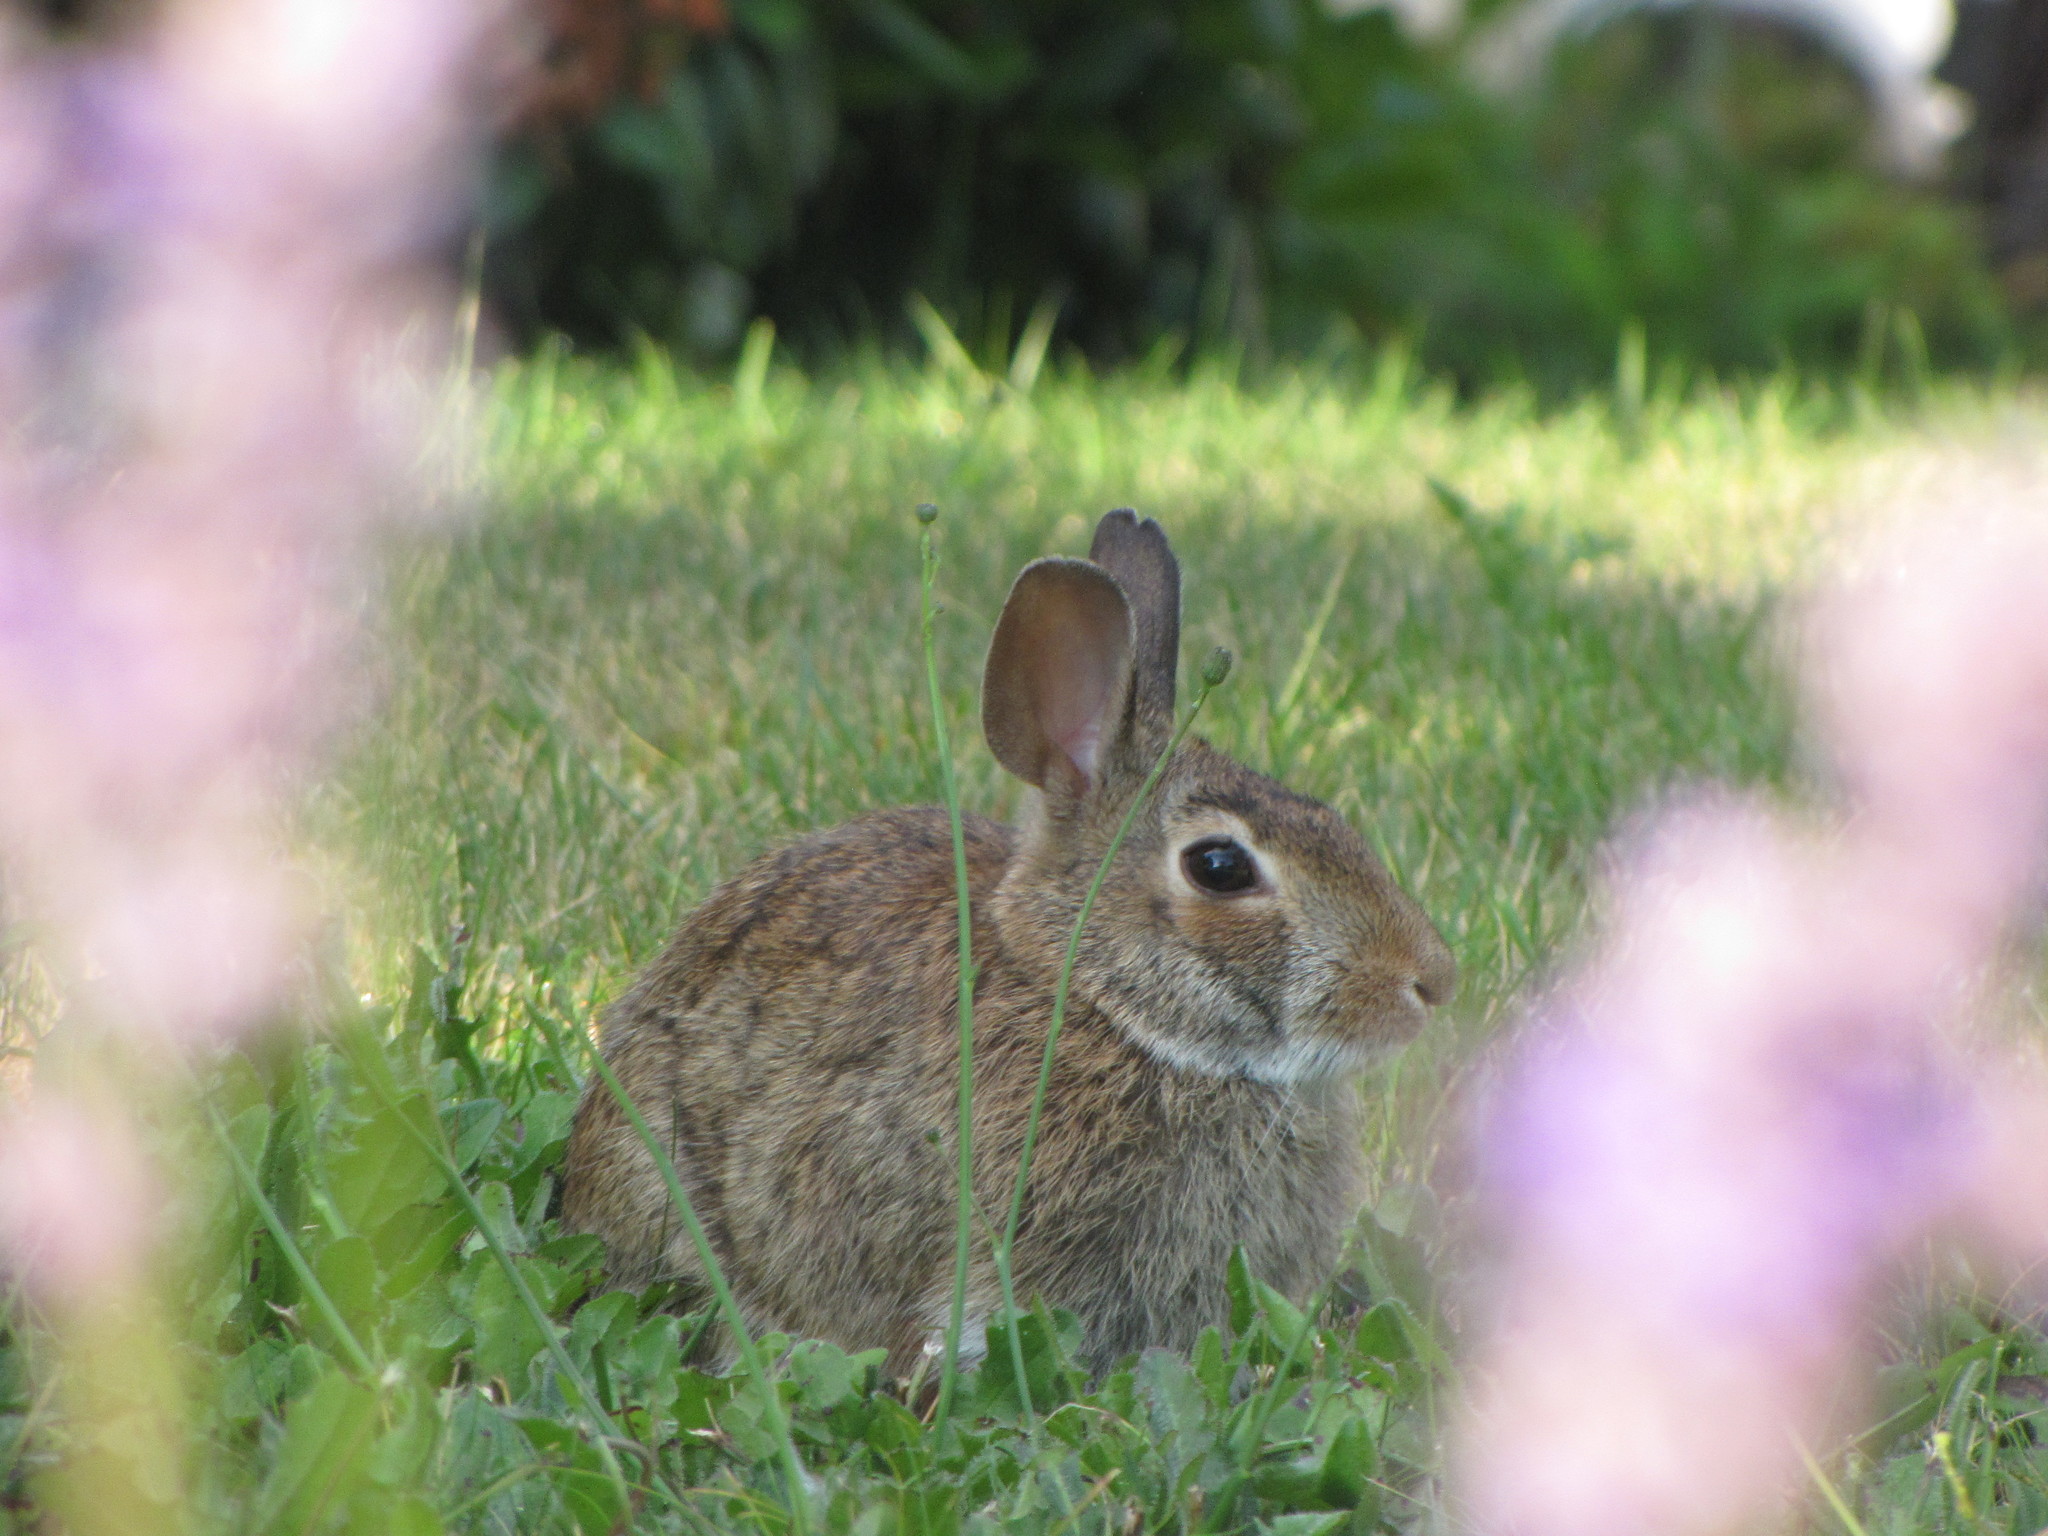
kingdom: Animalia
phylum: Chordata
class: Mammalia
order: Lagomorpha
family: Leporidae
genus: Sylvilagus
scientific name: Sylvilagus floridanus
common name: Eastern cottontail
